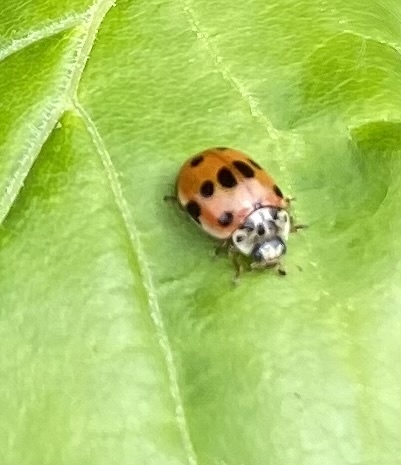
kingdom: Animalia
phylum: Arthropoda
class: Insecta
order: Coleoptera
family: Coccinellidae
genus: Adalia
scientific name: Adalia decempunctata
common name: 10-spot ladybird
